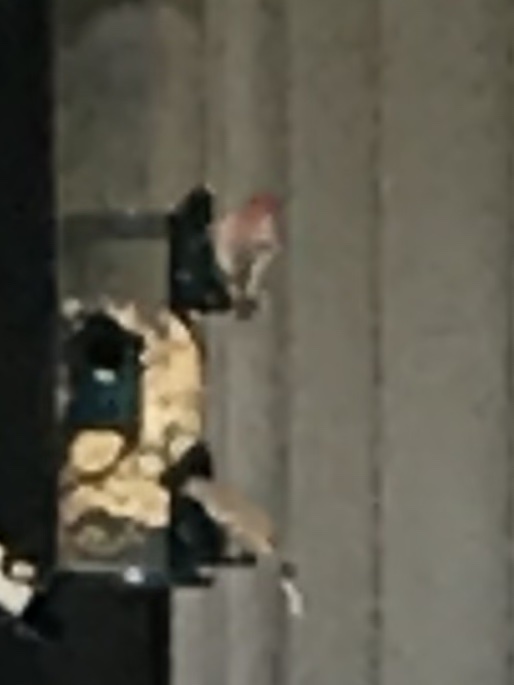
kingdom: Animalia
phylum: Chordata
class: Aves
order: Passeriformes
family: Fringillidae
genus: Haemorhous
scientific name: Haemorhous mexicanus
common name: House finch
